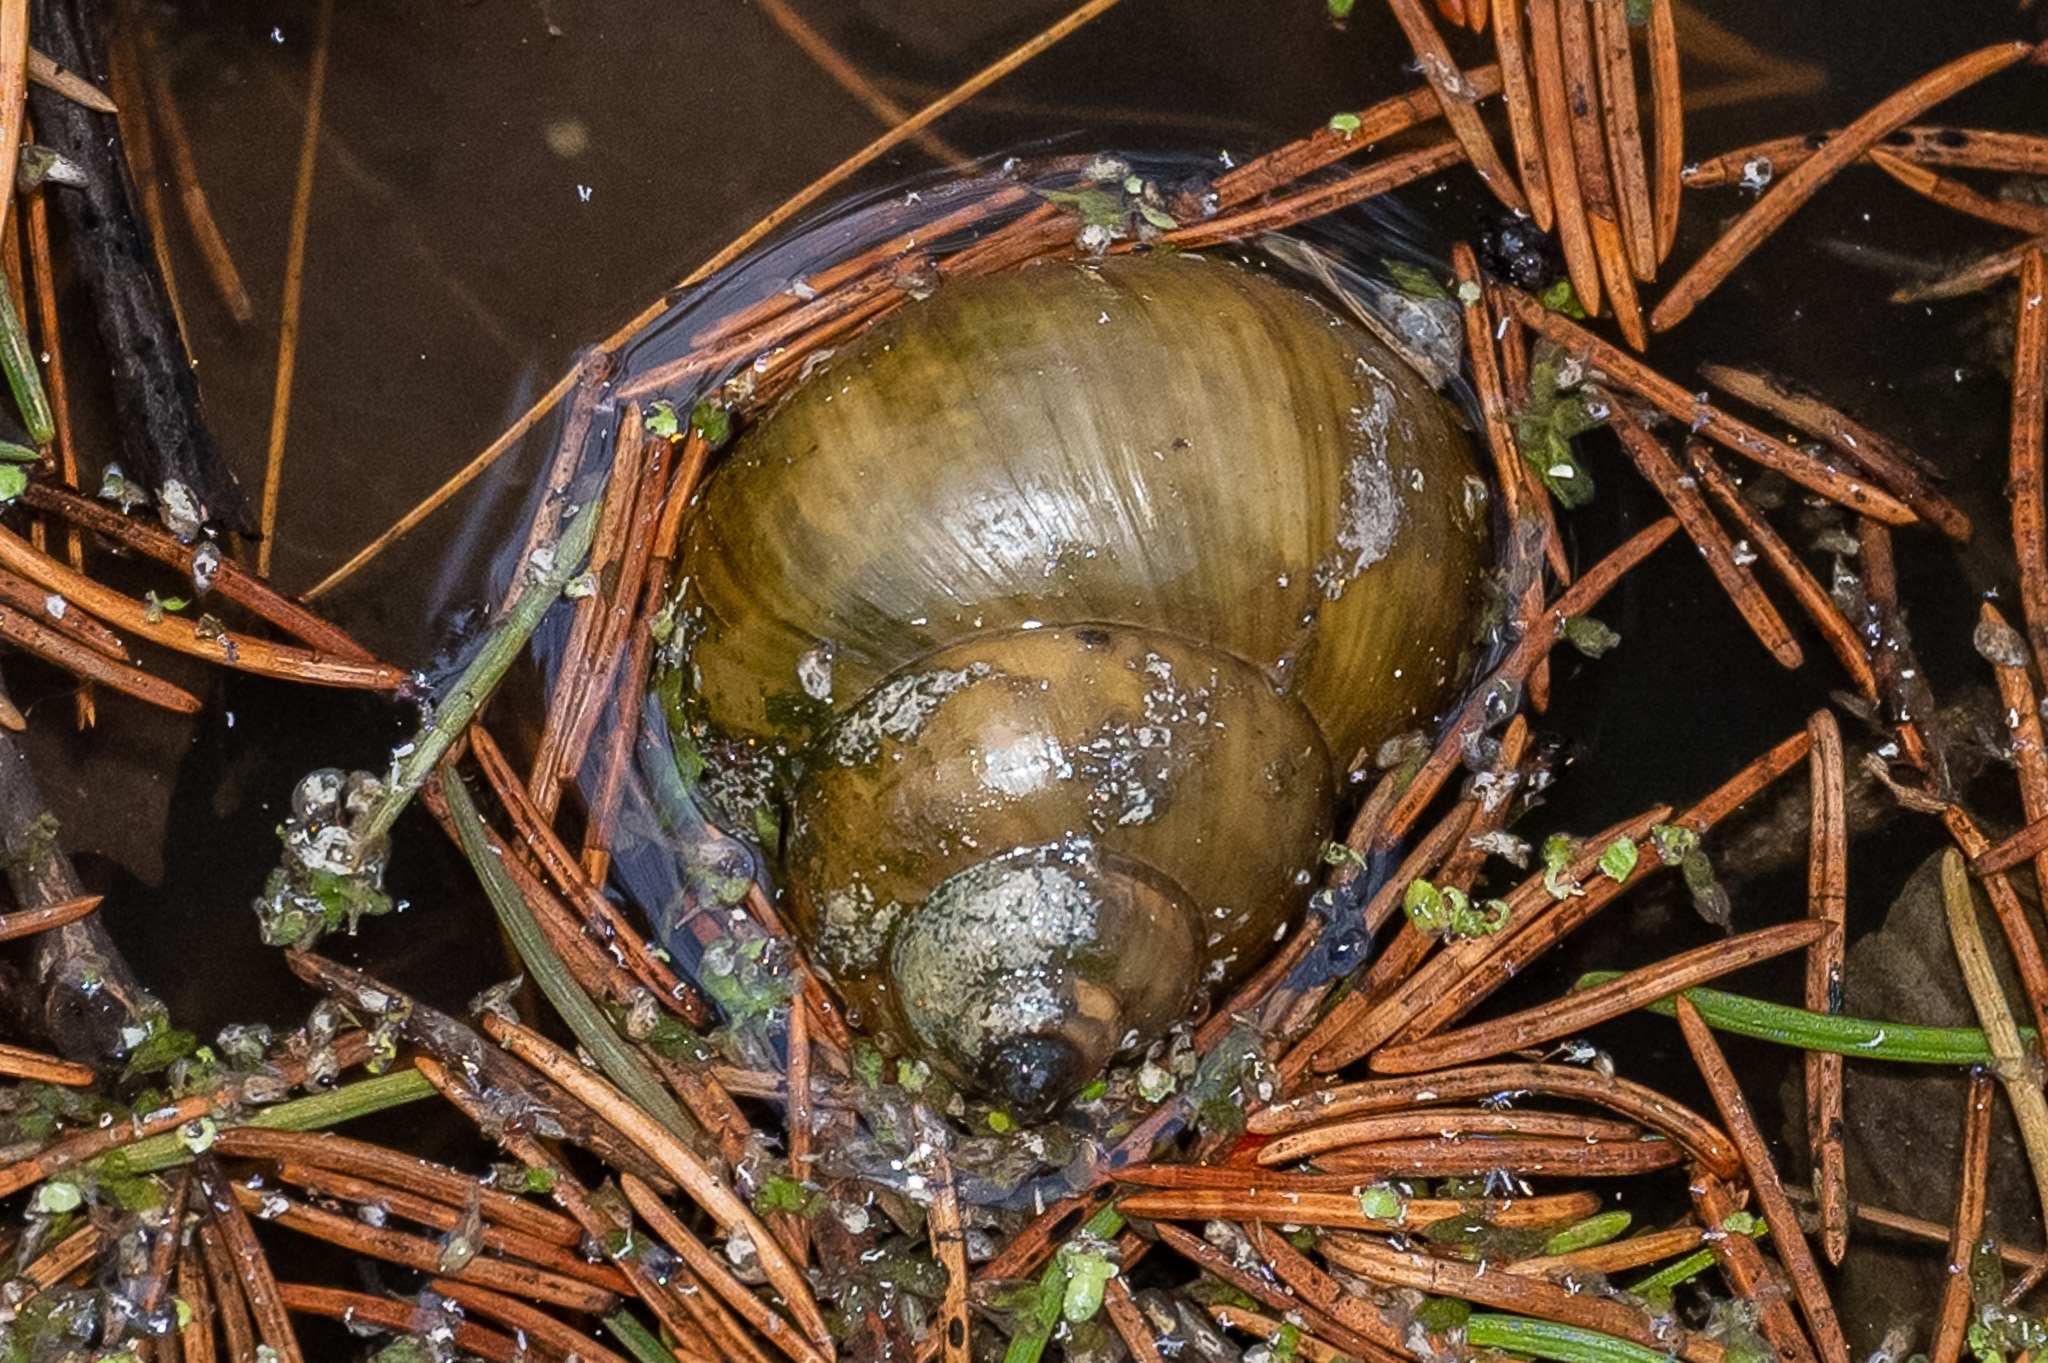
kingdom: Animalia
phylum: Mollusca
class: Gastropoda
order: Architaenioglossa
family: Viviparidae
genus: Cipangopaludina
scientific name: Cipangopaludina chinensis
